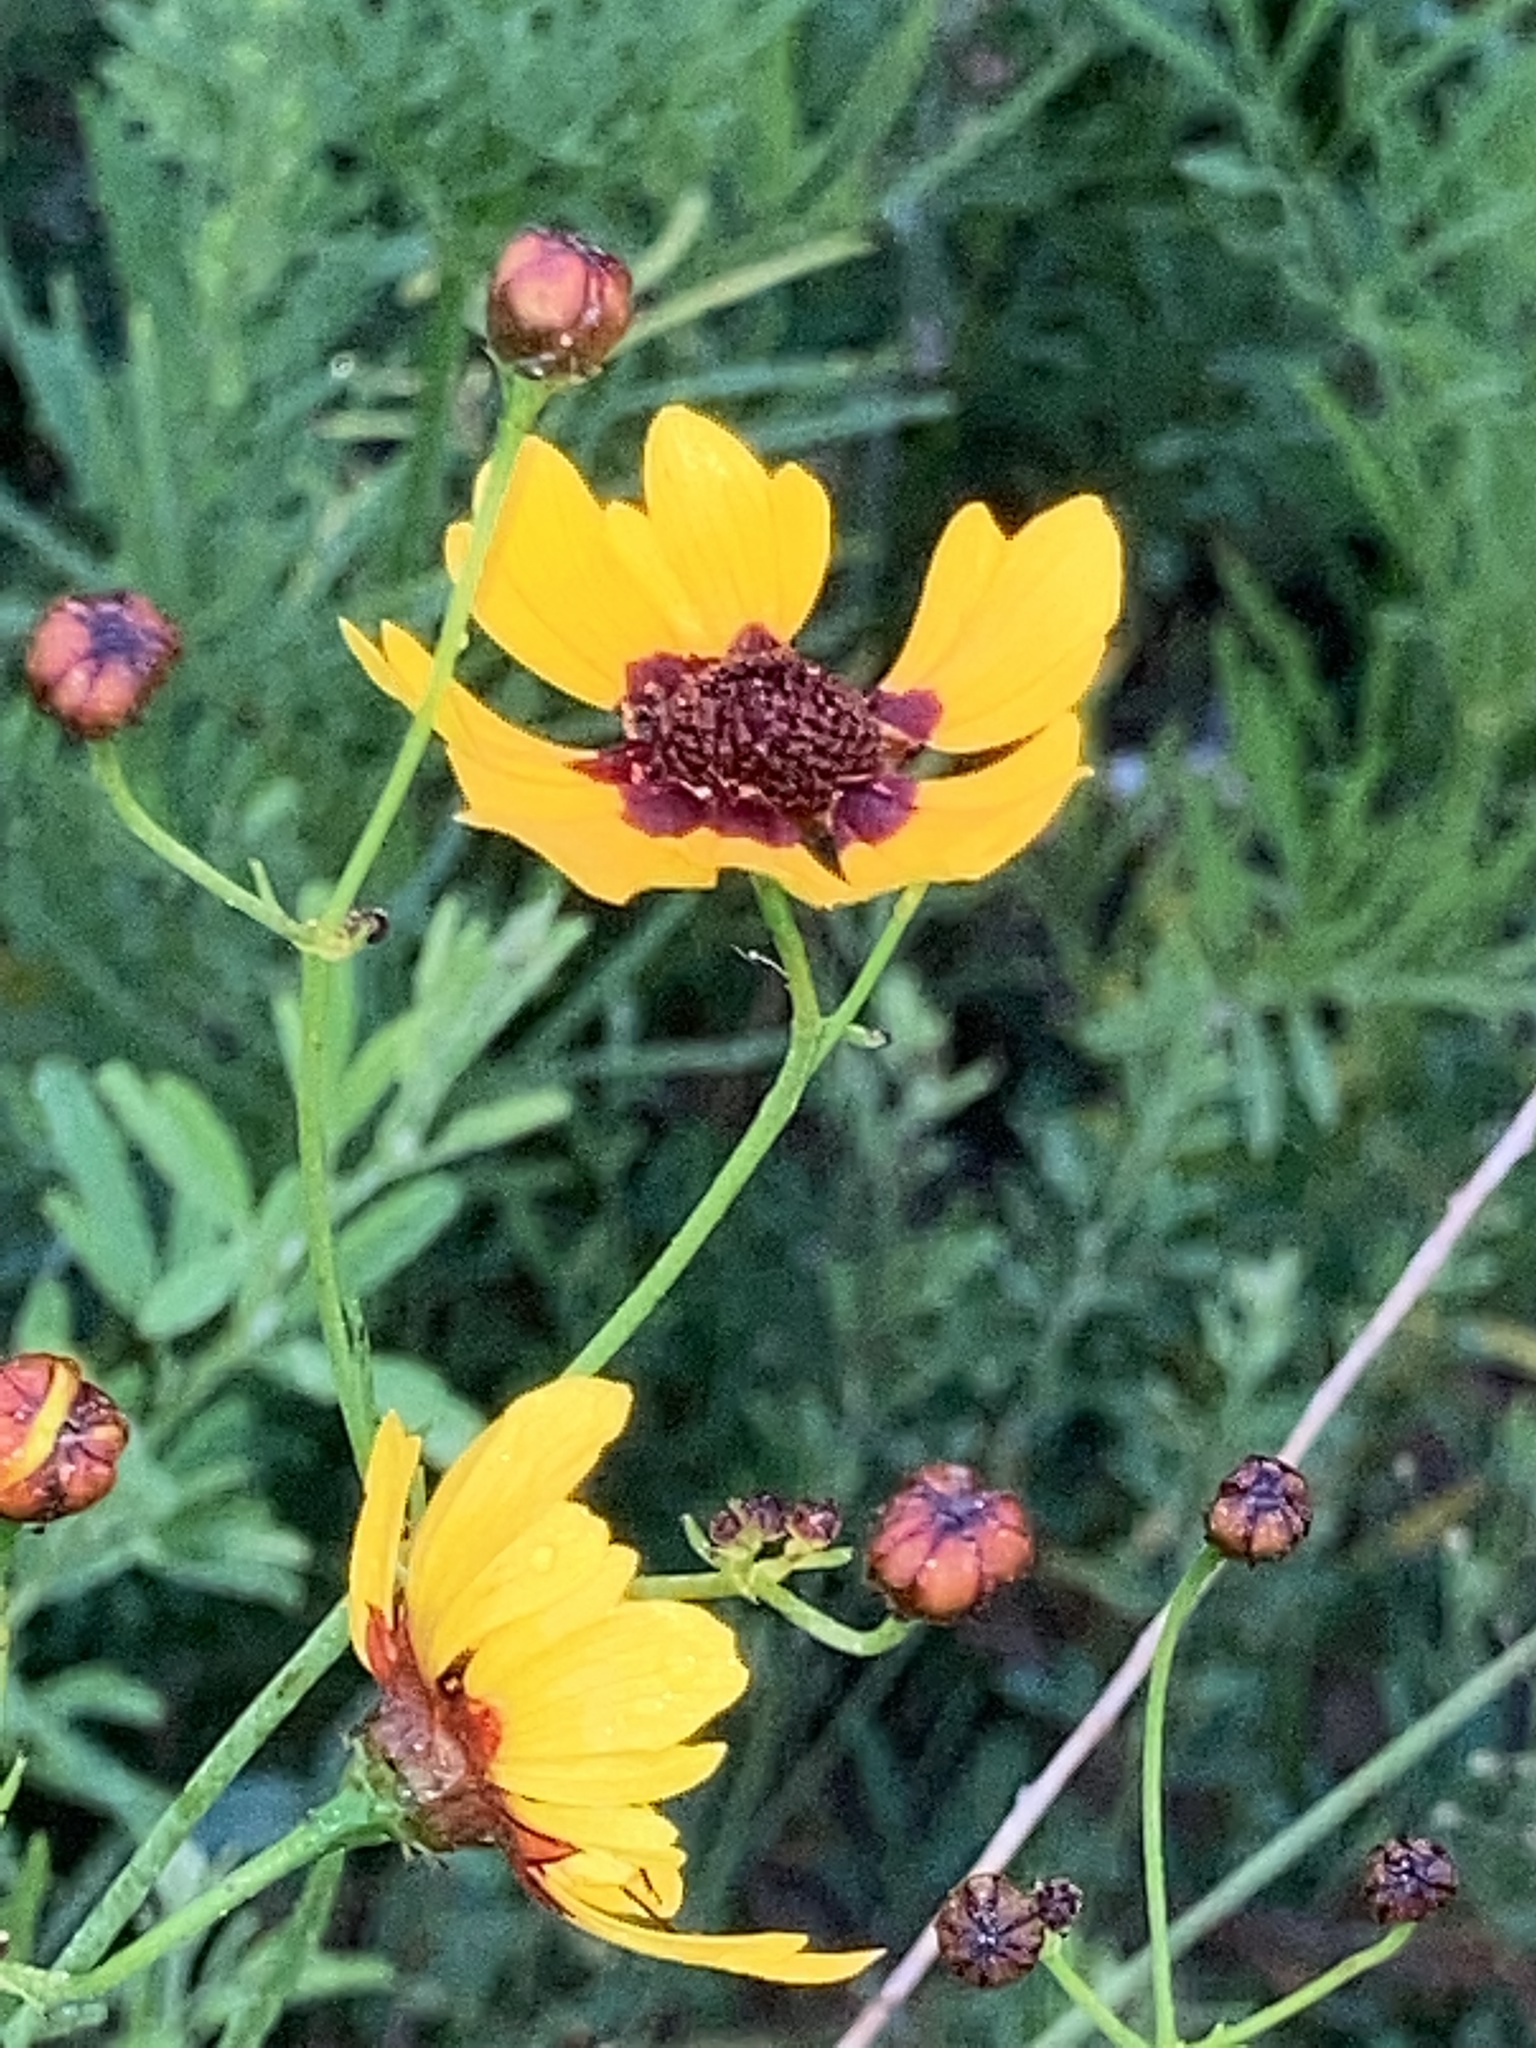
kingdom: Plantae
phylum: Tracheophyta
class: Magnoliopsida
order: Asterales
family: Asteraceae
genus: Coreopsis
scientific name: Coreopsis tinctoria
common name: Garden tickseed
